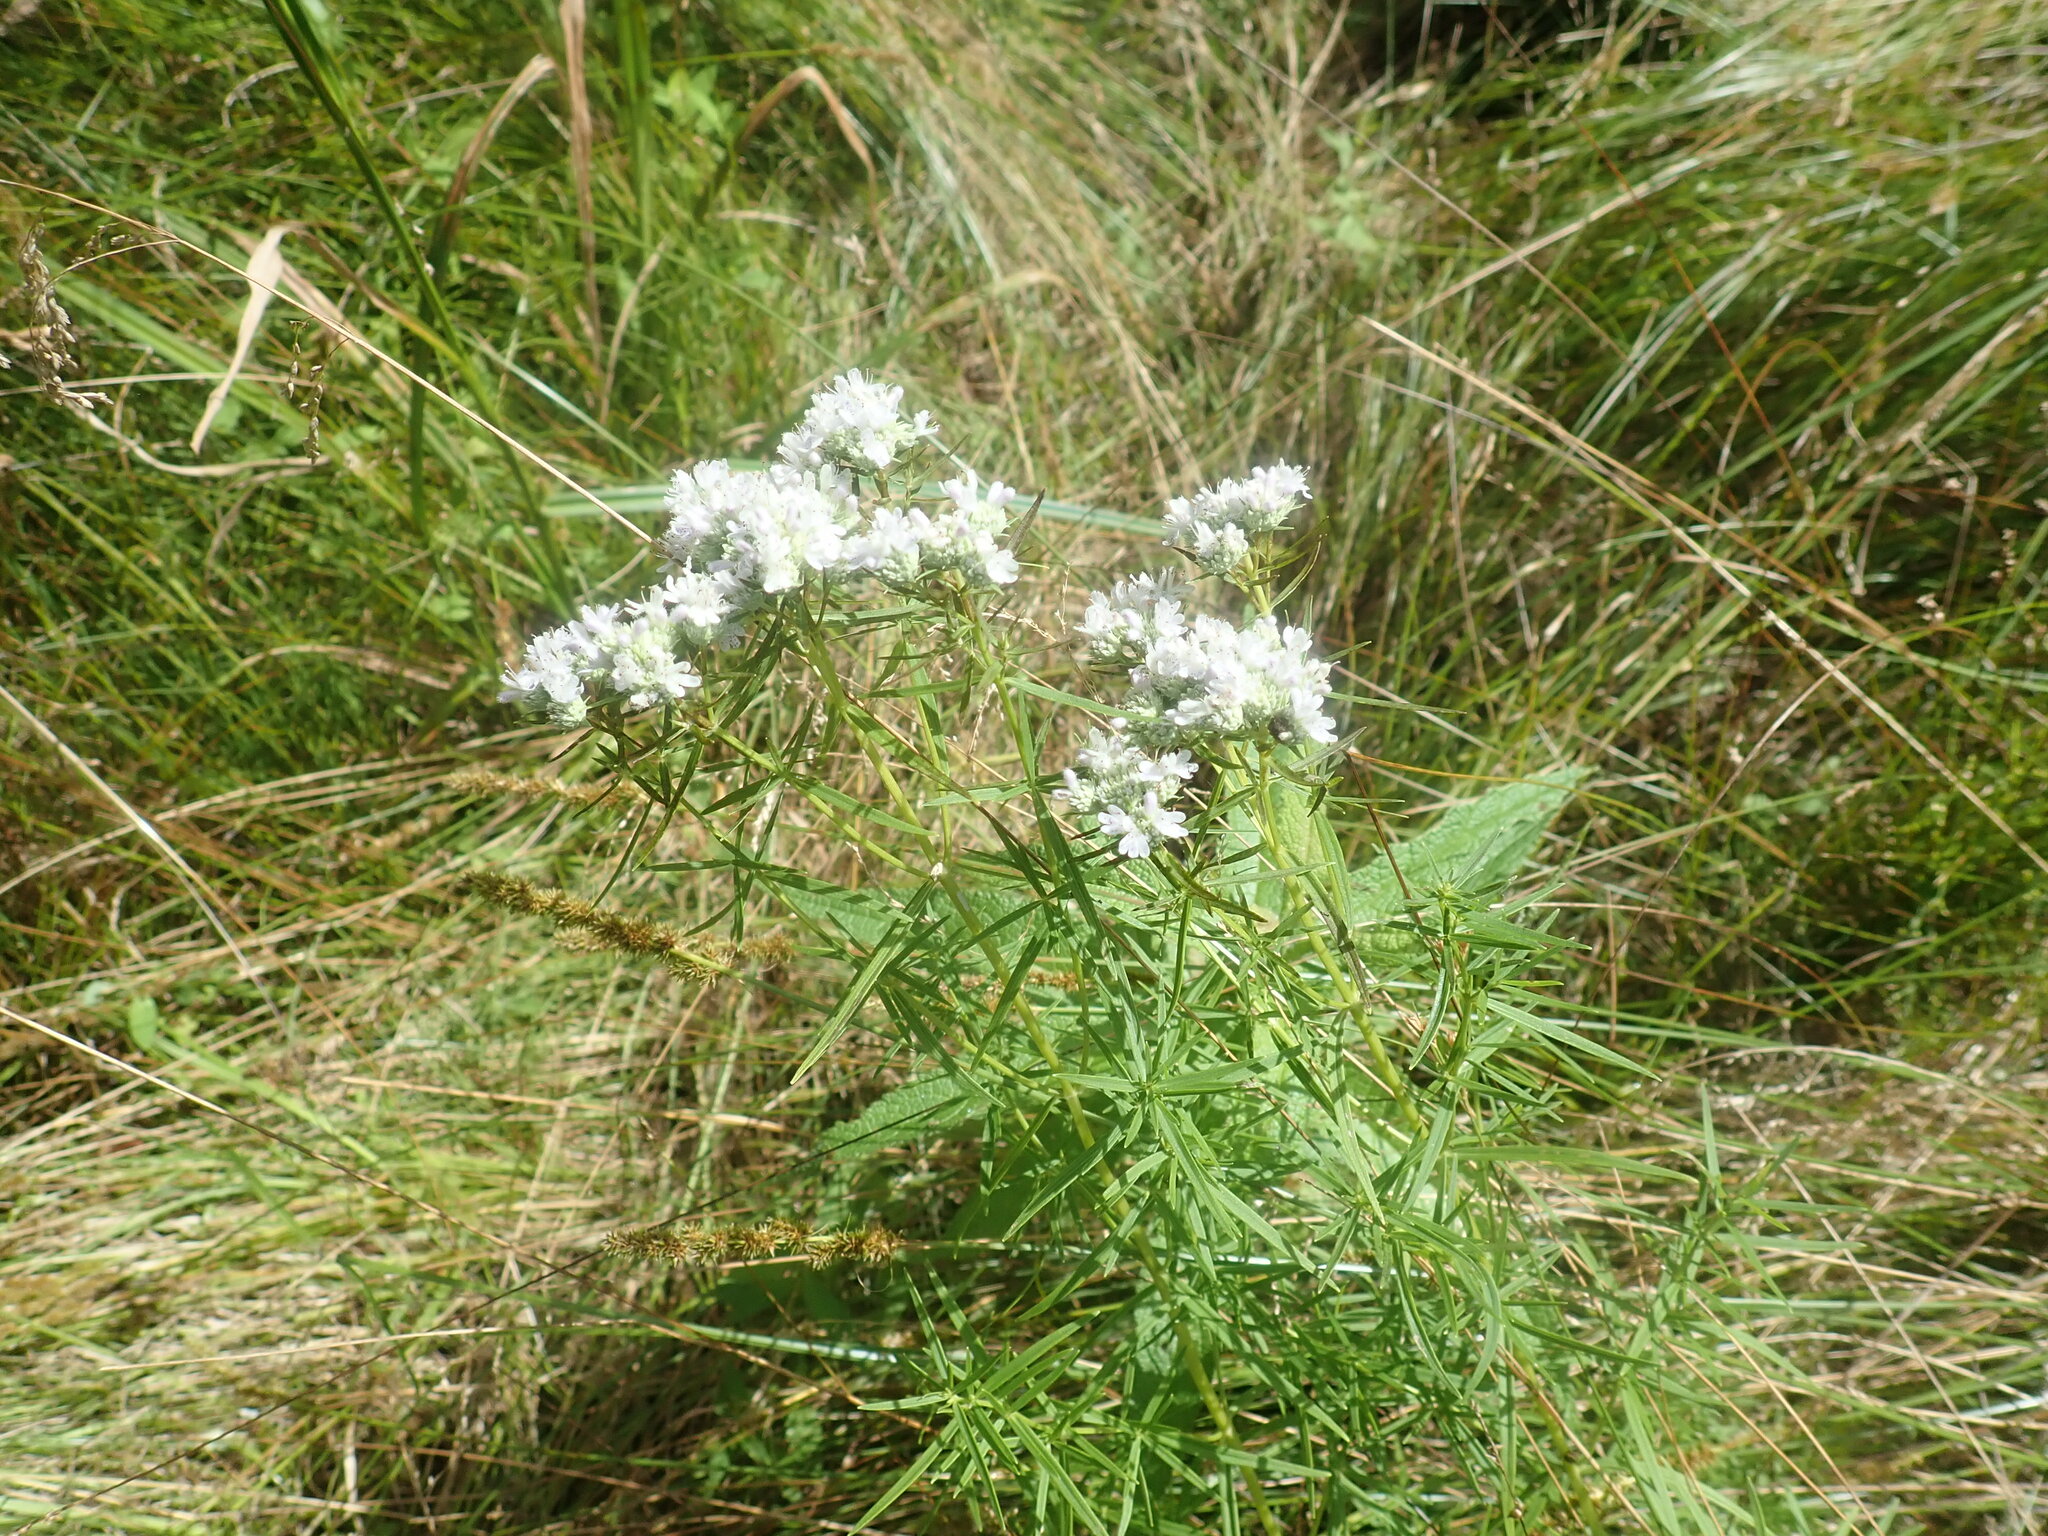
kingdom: Plantae
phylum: Tracheophyta
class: Magnoliopsida
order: Lamiales
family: Lamiaceae
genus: Pycnanthemum
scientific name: Pycnanthemum tenuifolium
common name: Narrow-leaf mountain-mint
